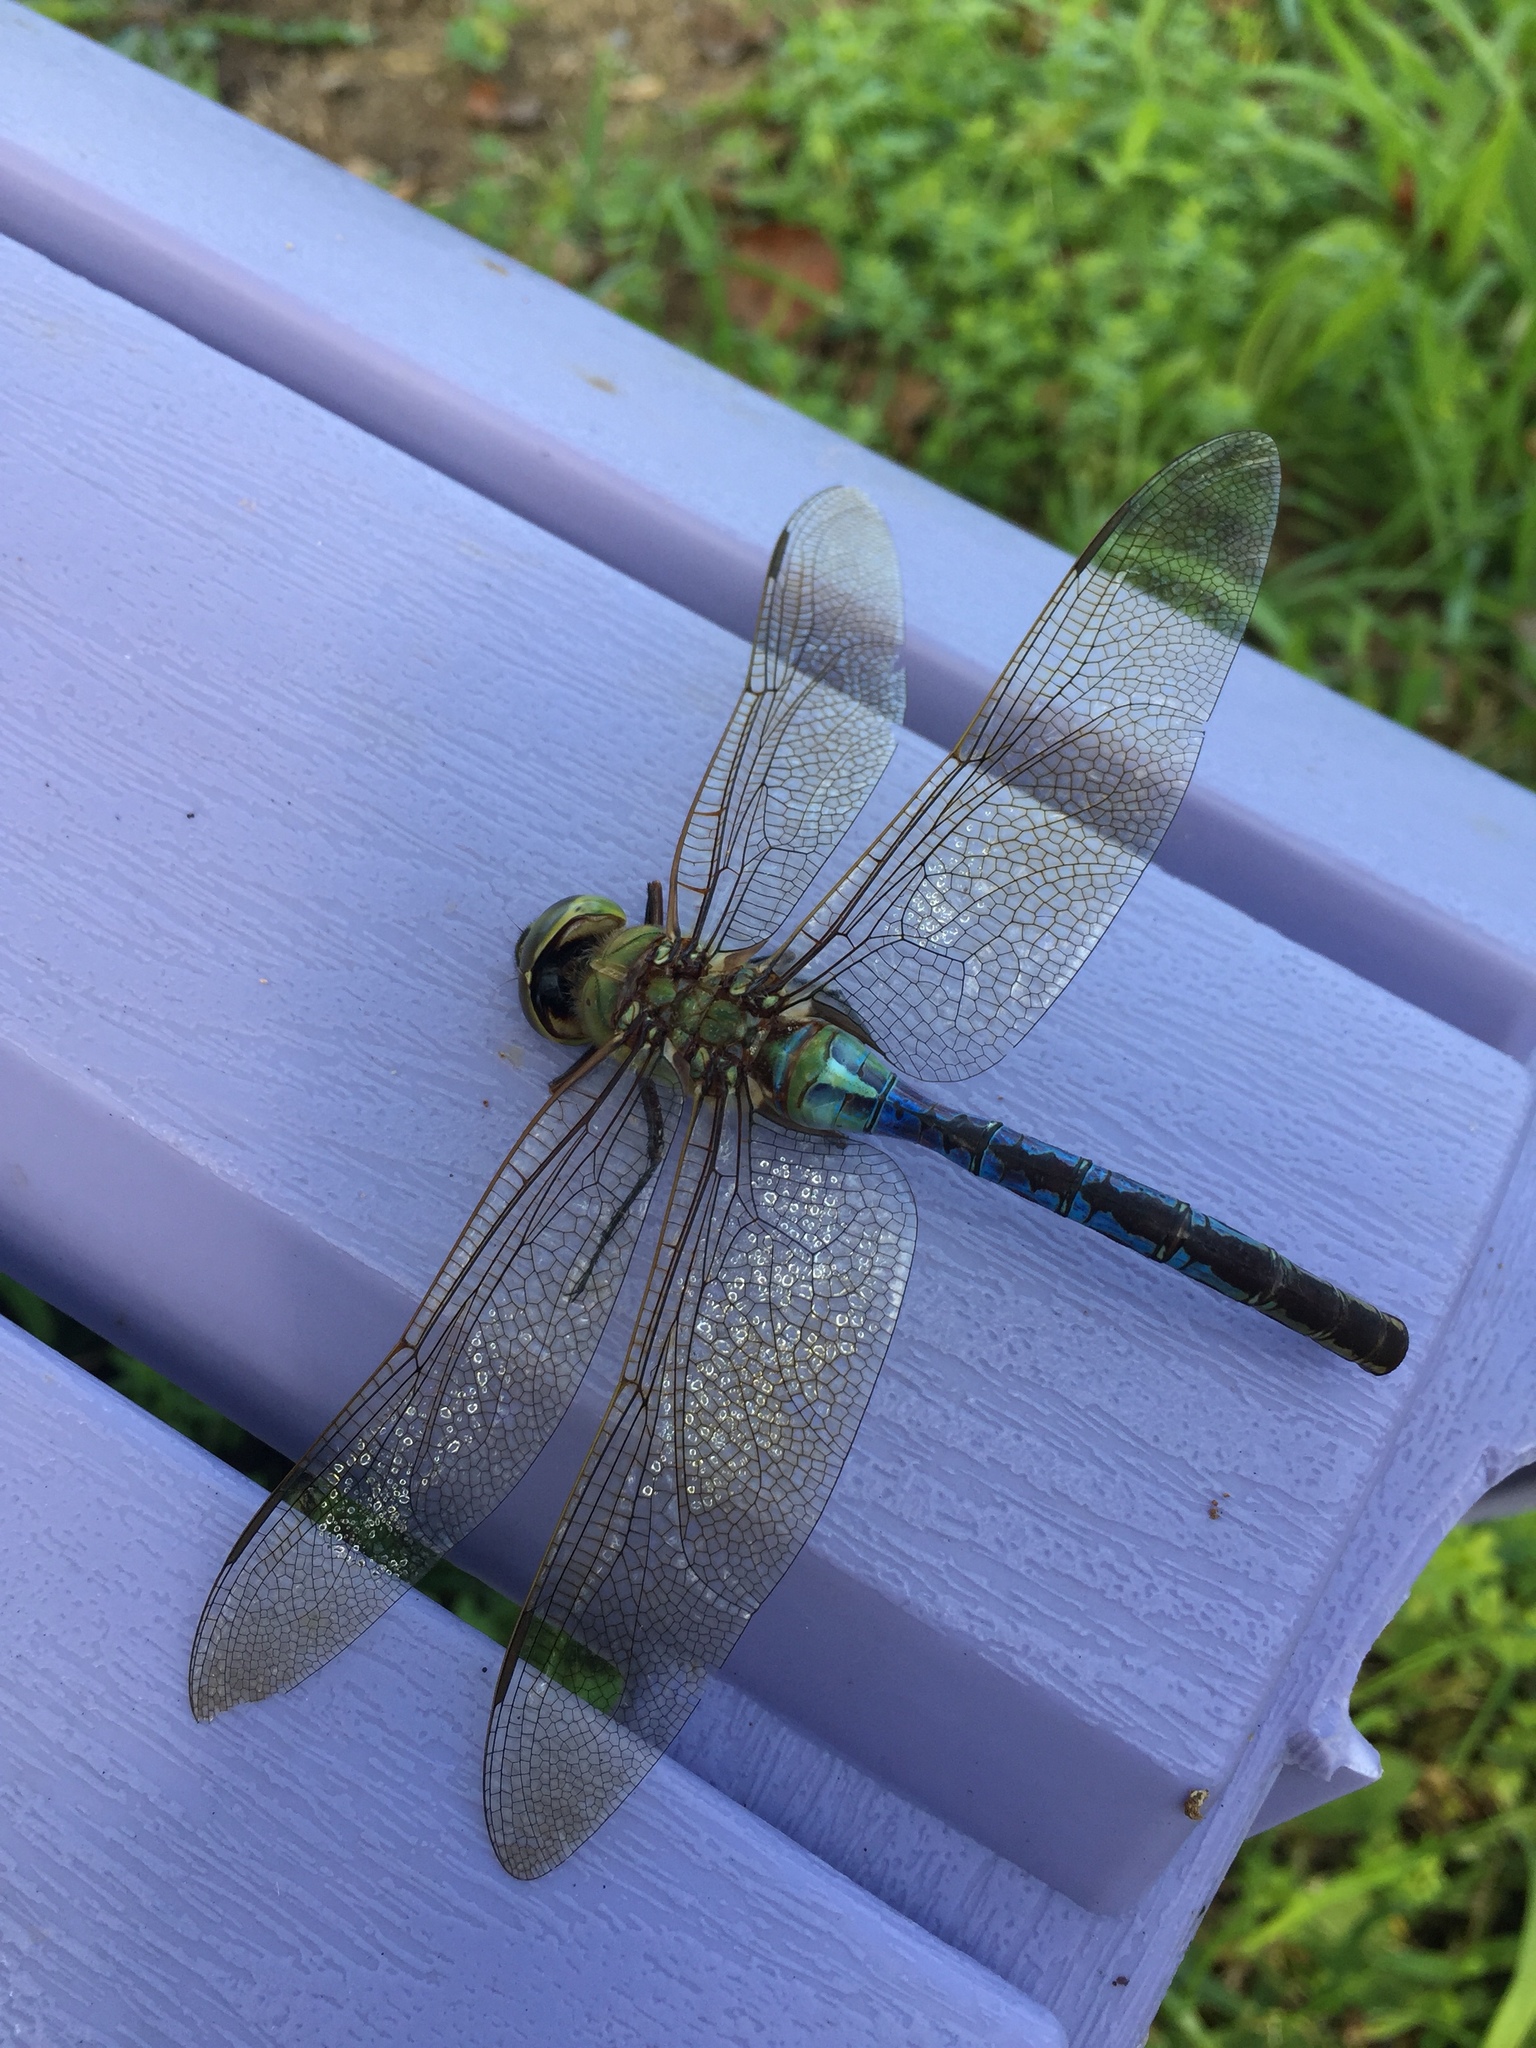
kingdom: Animalia
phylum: Arthropoda
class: Insecta
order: Odonata
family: Aeshnidae
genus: Anax
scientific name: Anax junius
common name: Common green darner
